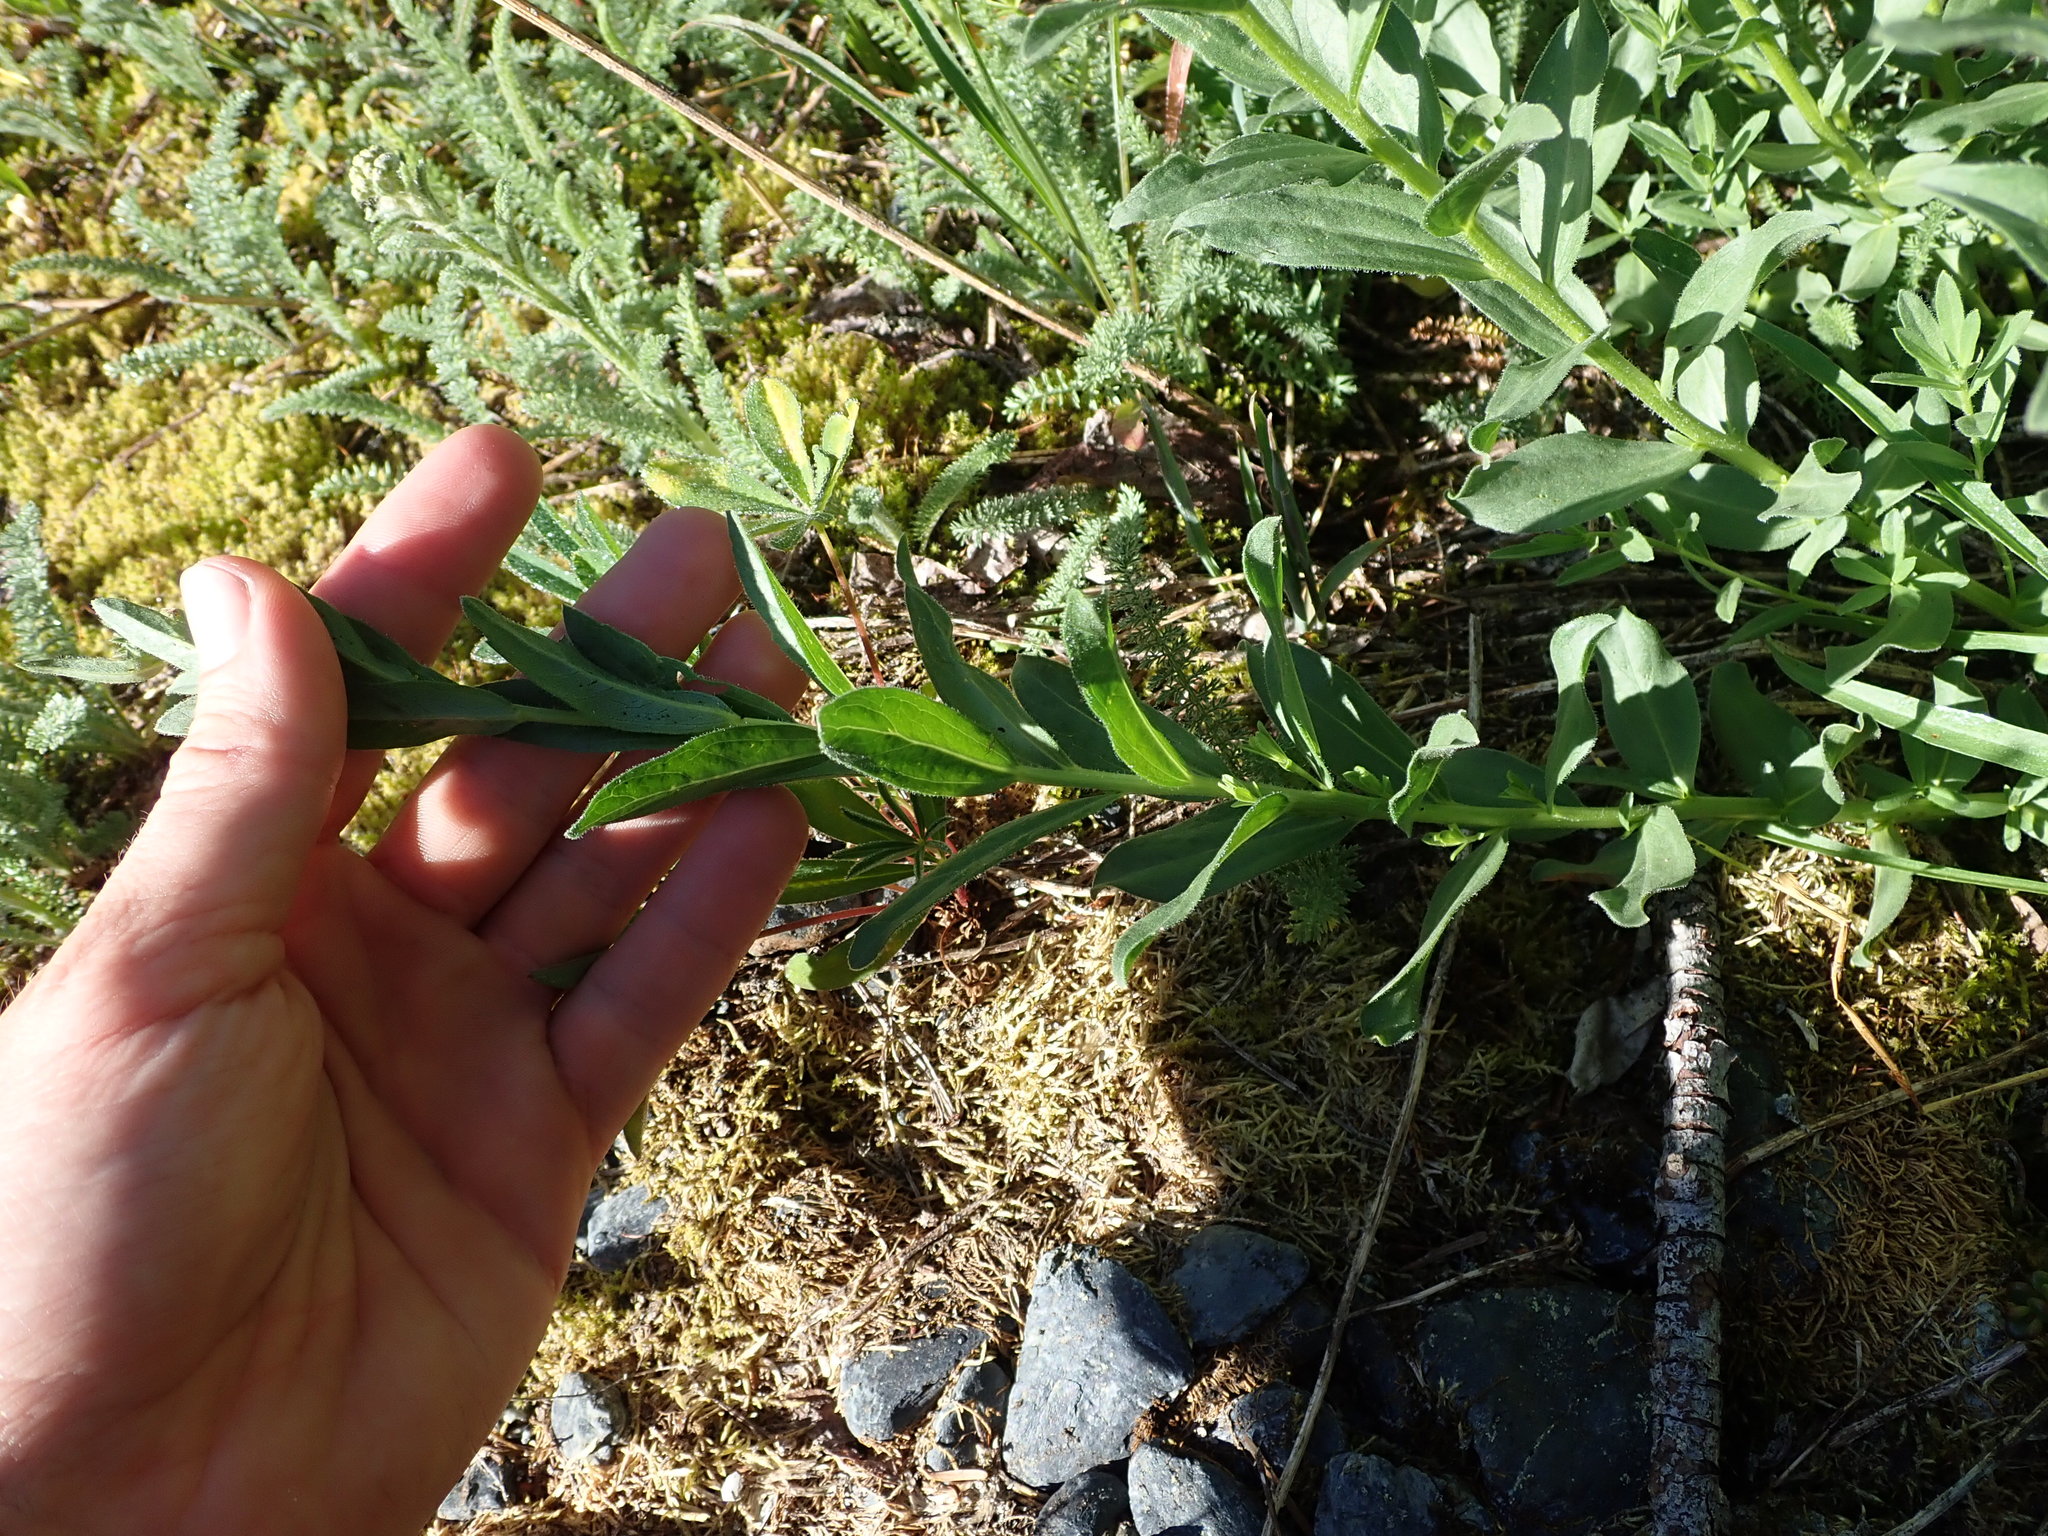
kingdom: Plantae
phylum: Tracheophyta
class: Magnoliopsida
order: Asterales
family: Asteraceae
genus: Eucephalus
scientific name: Eucephalus paucicapitatus
